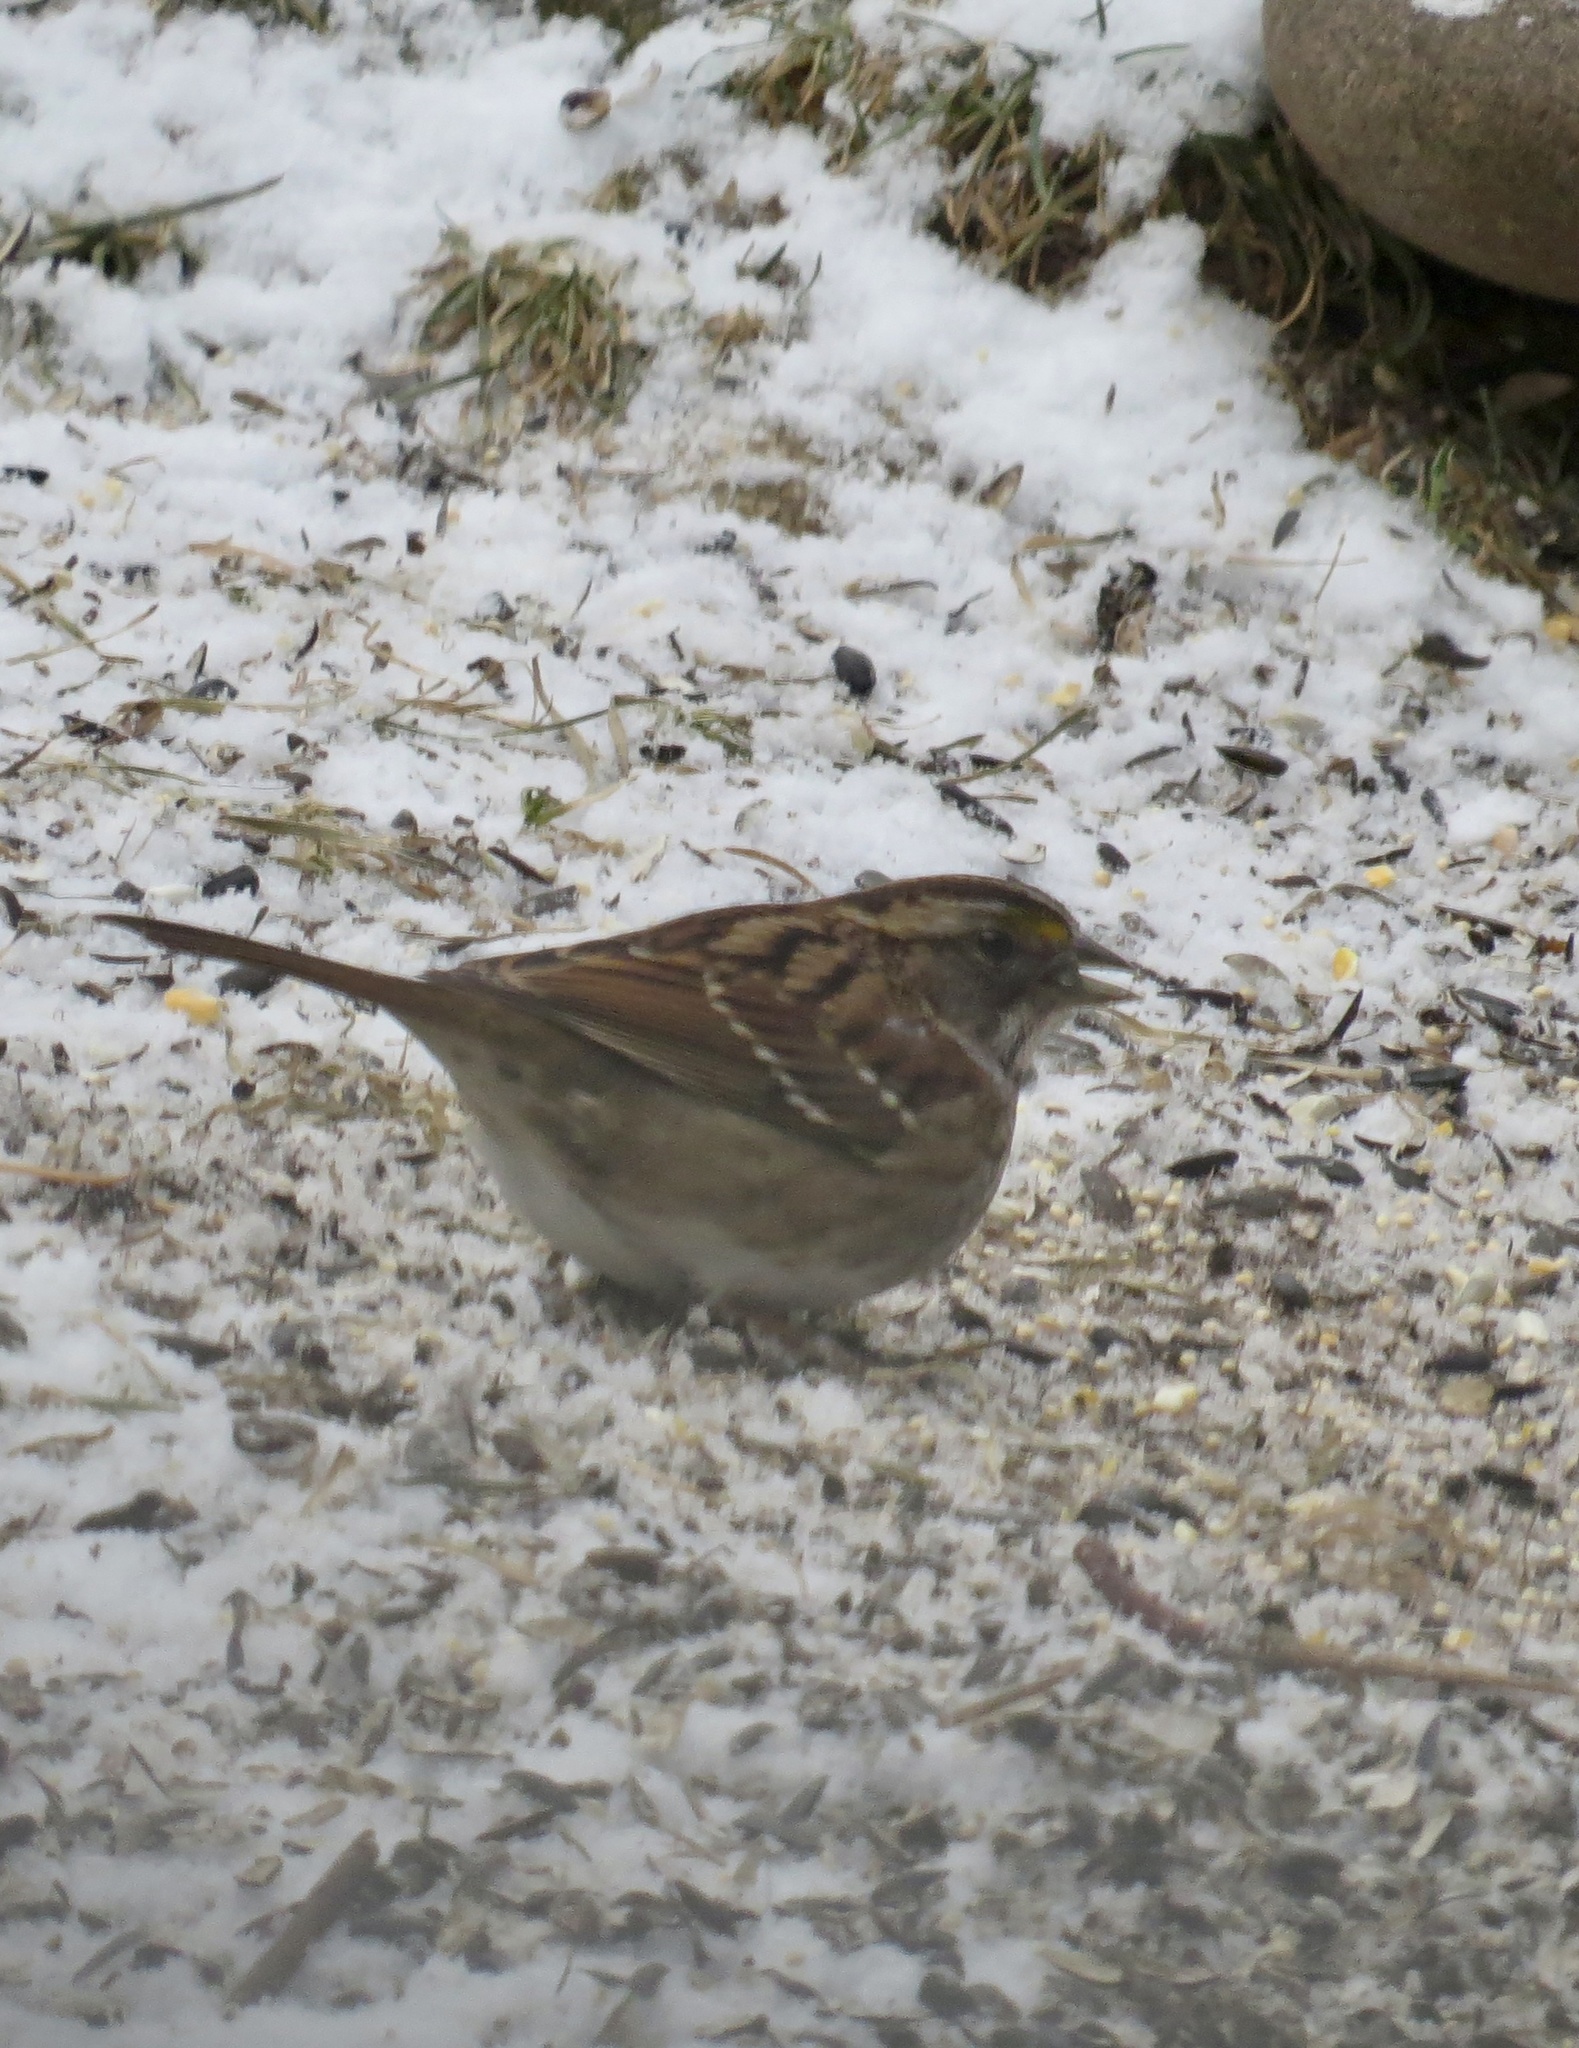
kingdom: Animalia
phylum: Chordata
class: Aves
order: Passeriformes
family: Passerellidae
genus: Zonotrichia
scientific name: Zonotrichia albicollis
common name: White-throated sparrow
